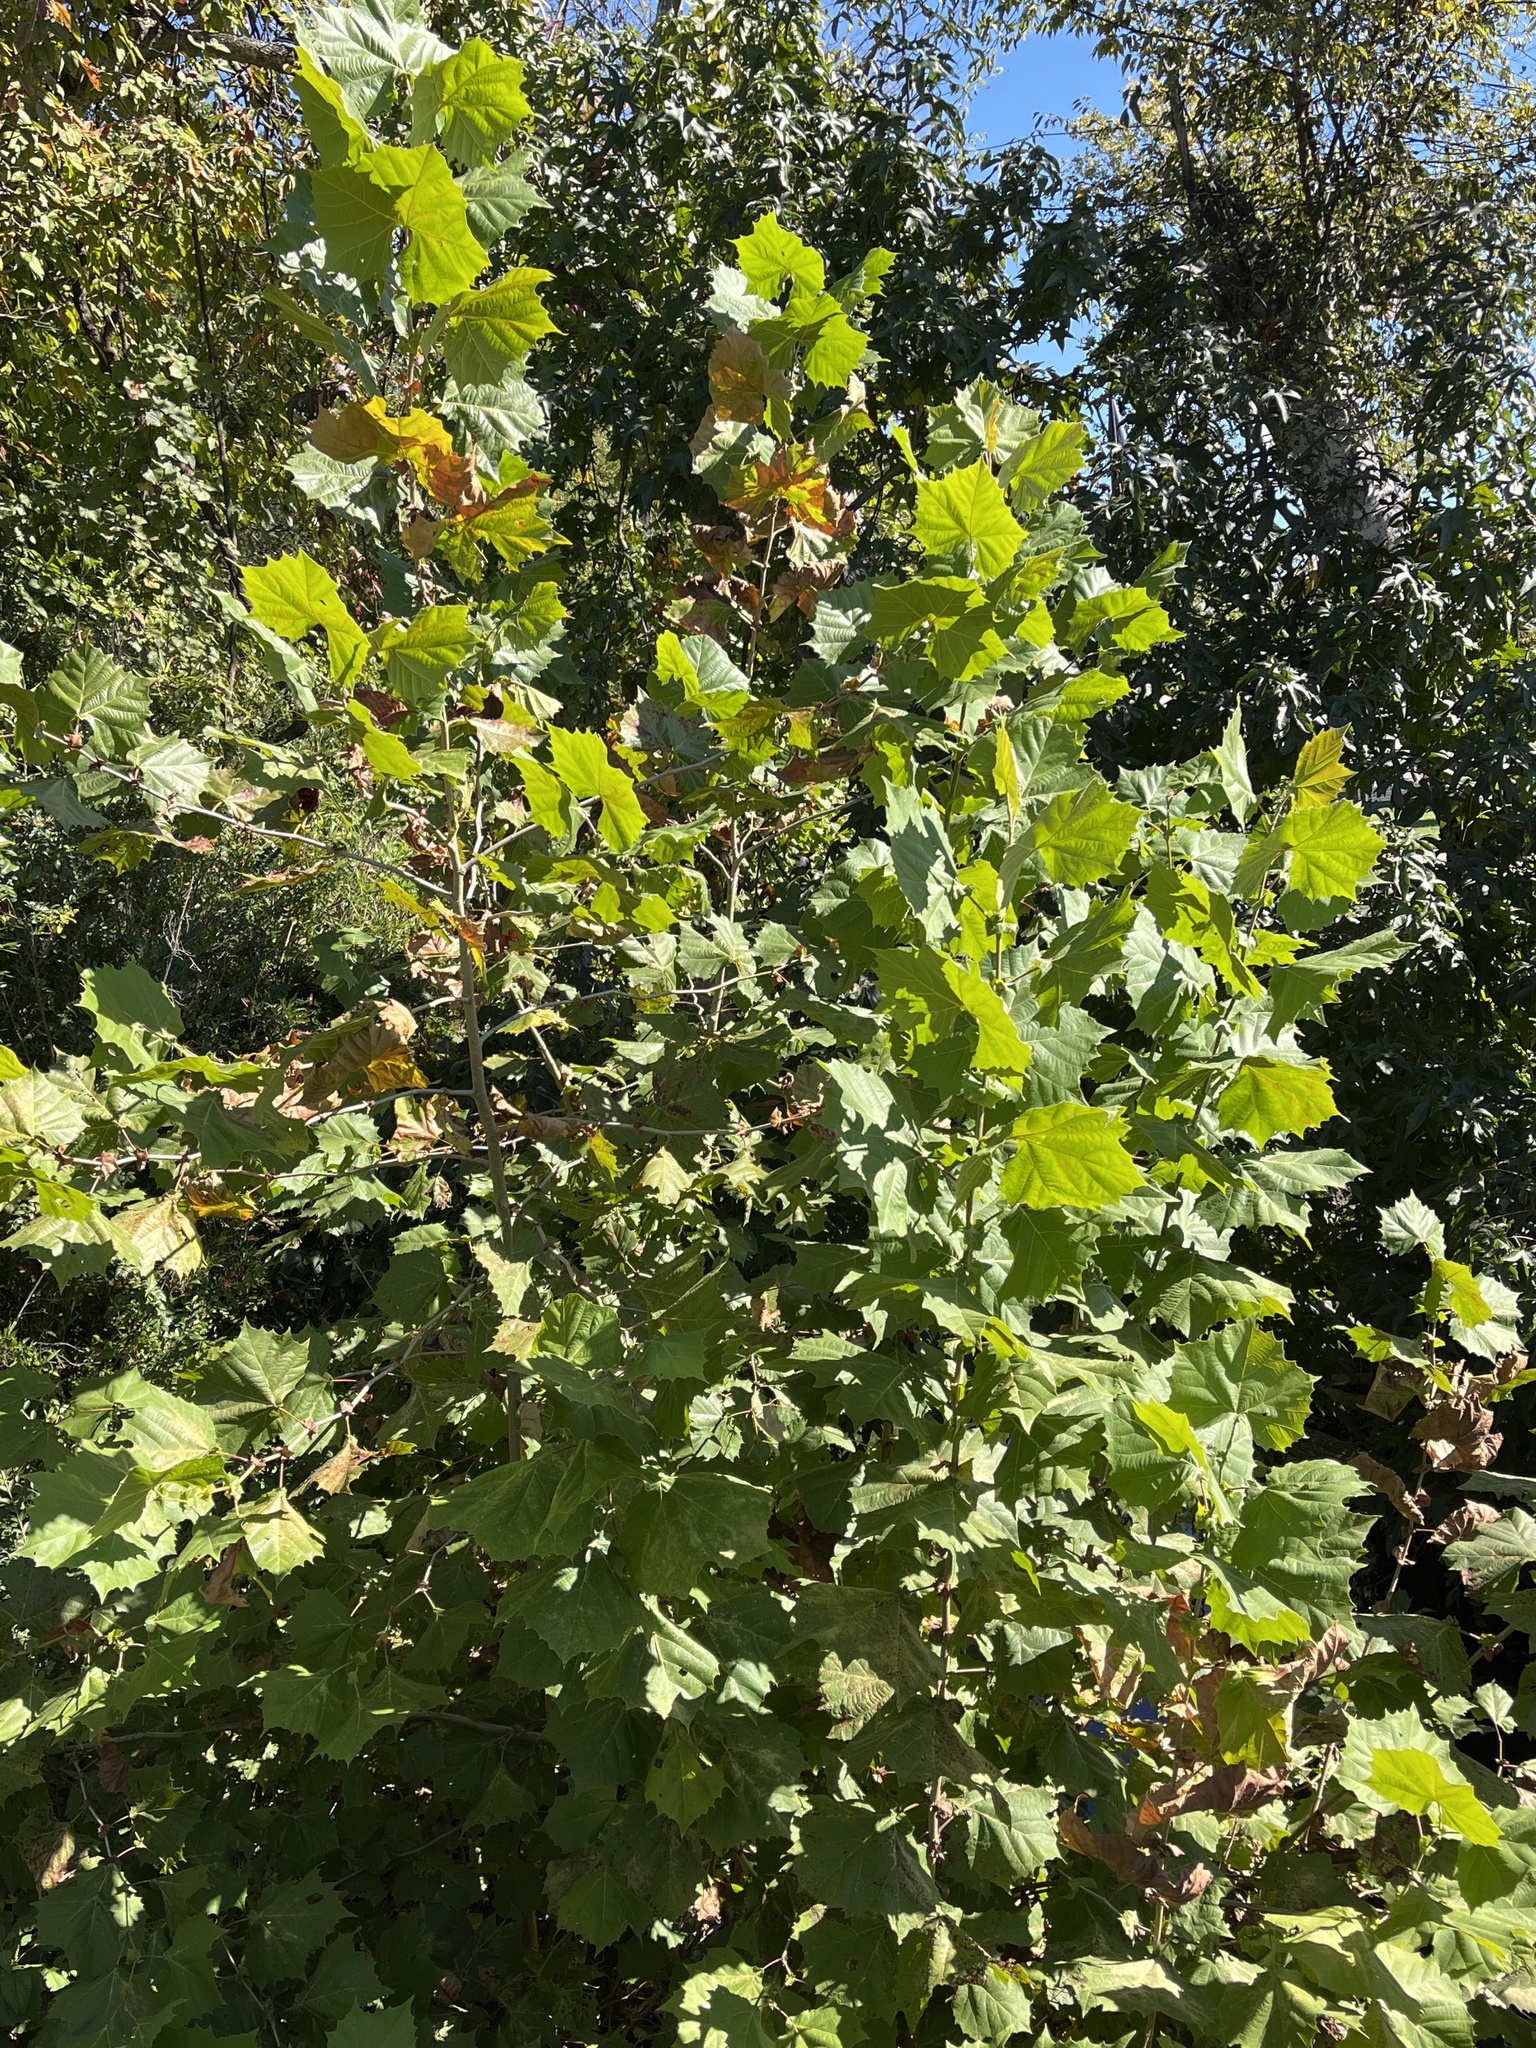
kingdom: Plantae
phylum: Tracheophyta
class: Magnoliopsida
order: Proteales
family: Platanaceae
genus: Platanus
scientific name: Platanus occidentalis
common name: American sycamore
